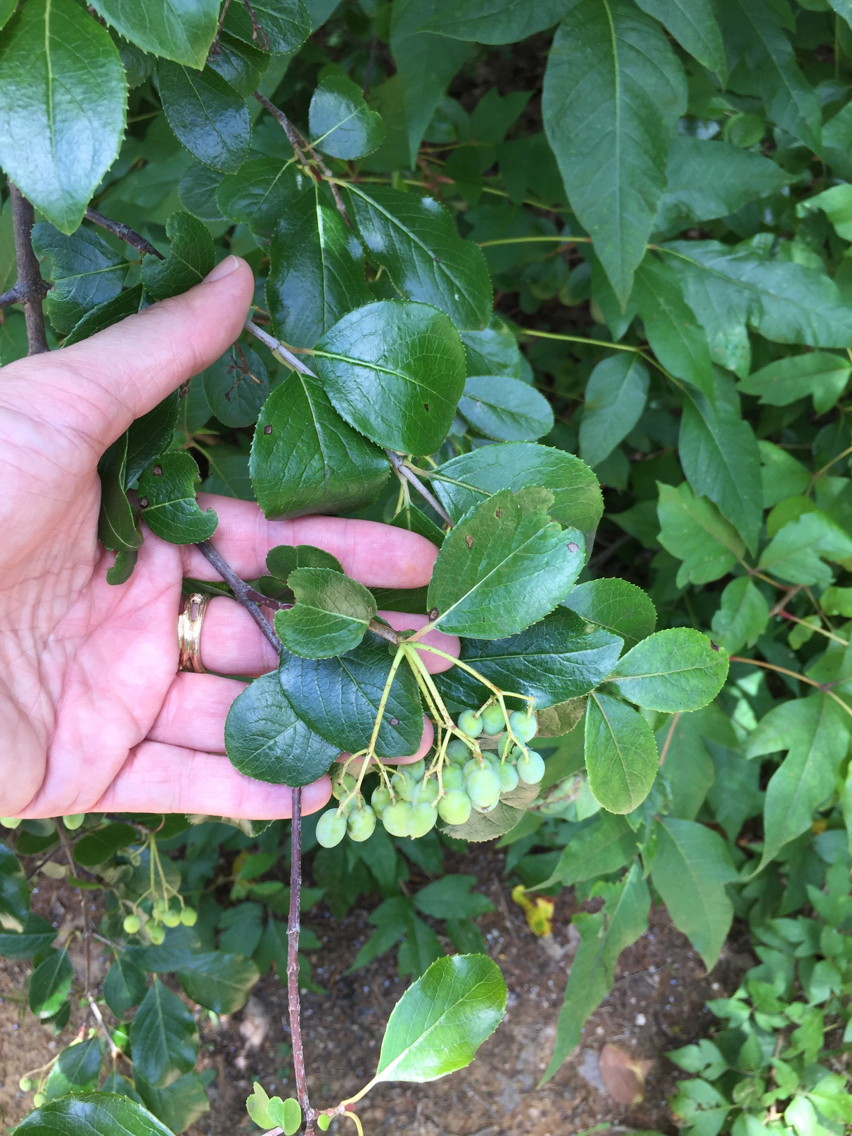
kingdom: Plantae
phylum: Tracheophyta
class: Magnoliopsida
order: Dipsacales
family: Viburnaceae
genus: Viburnum
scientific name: Viburnum rufidulum
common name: Blue haw
